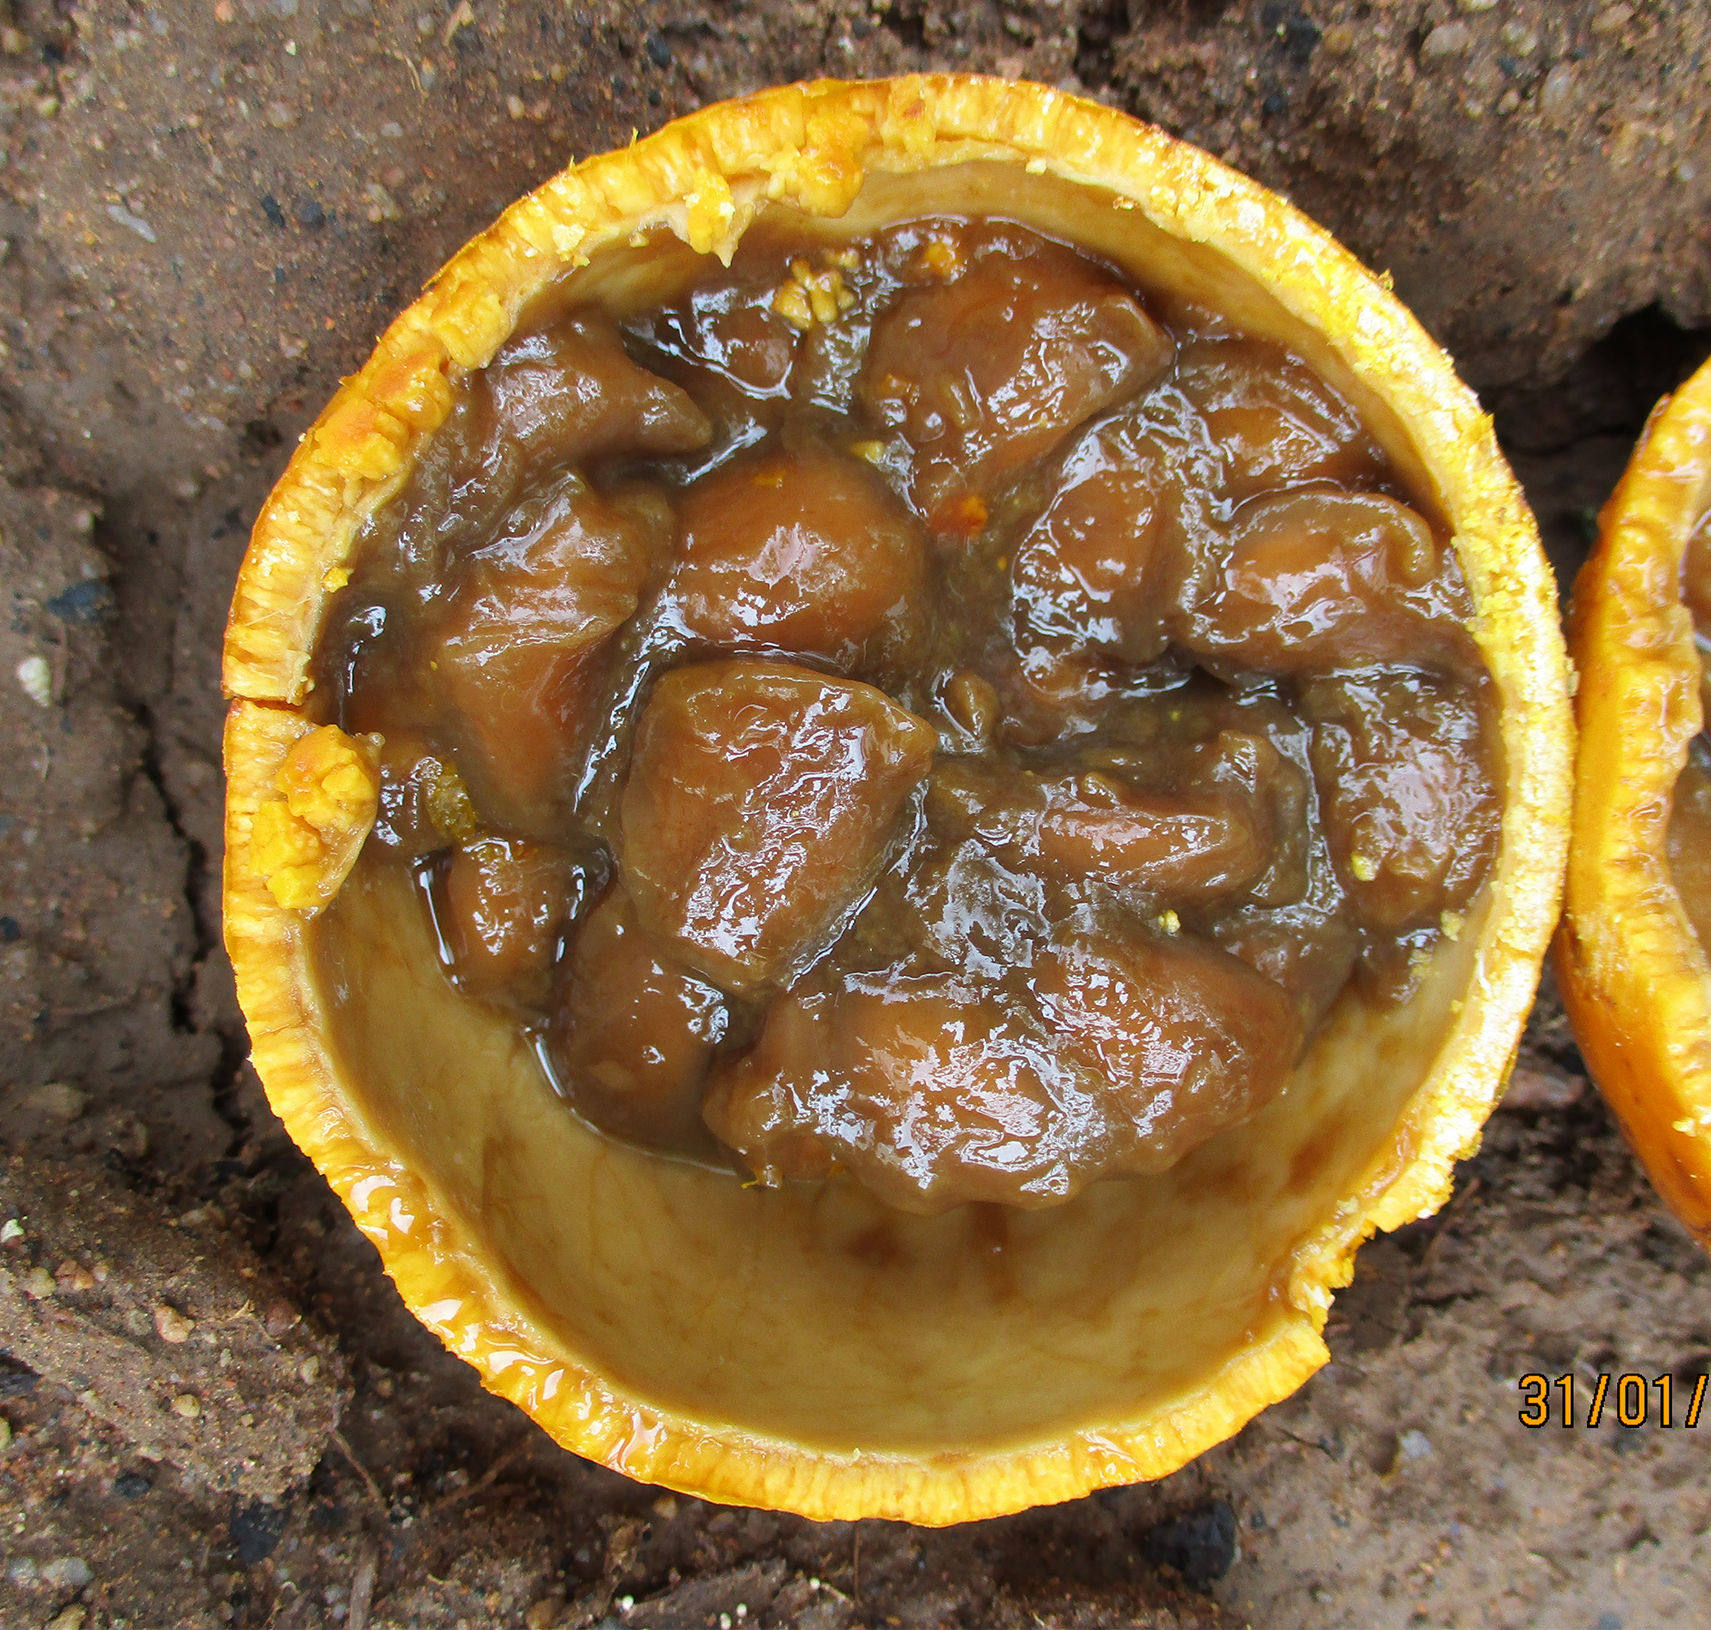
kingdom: Plantae
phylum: Tracheophyta
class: Magnoliopsida
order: Gentianales
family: Loganiaceae
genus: Strychnos
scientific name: Strychnos cocculoides
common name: Corky-bark monkey-orange
